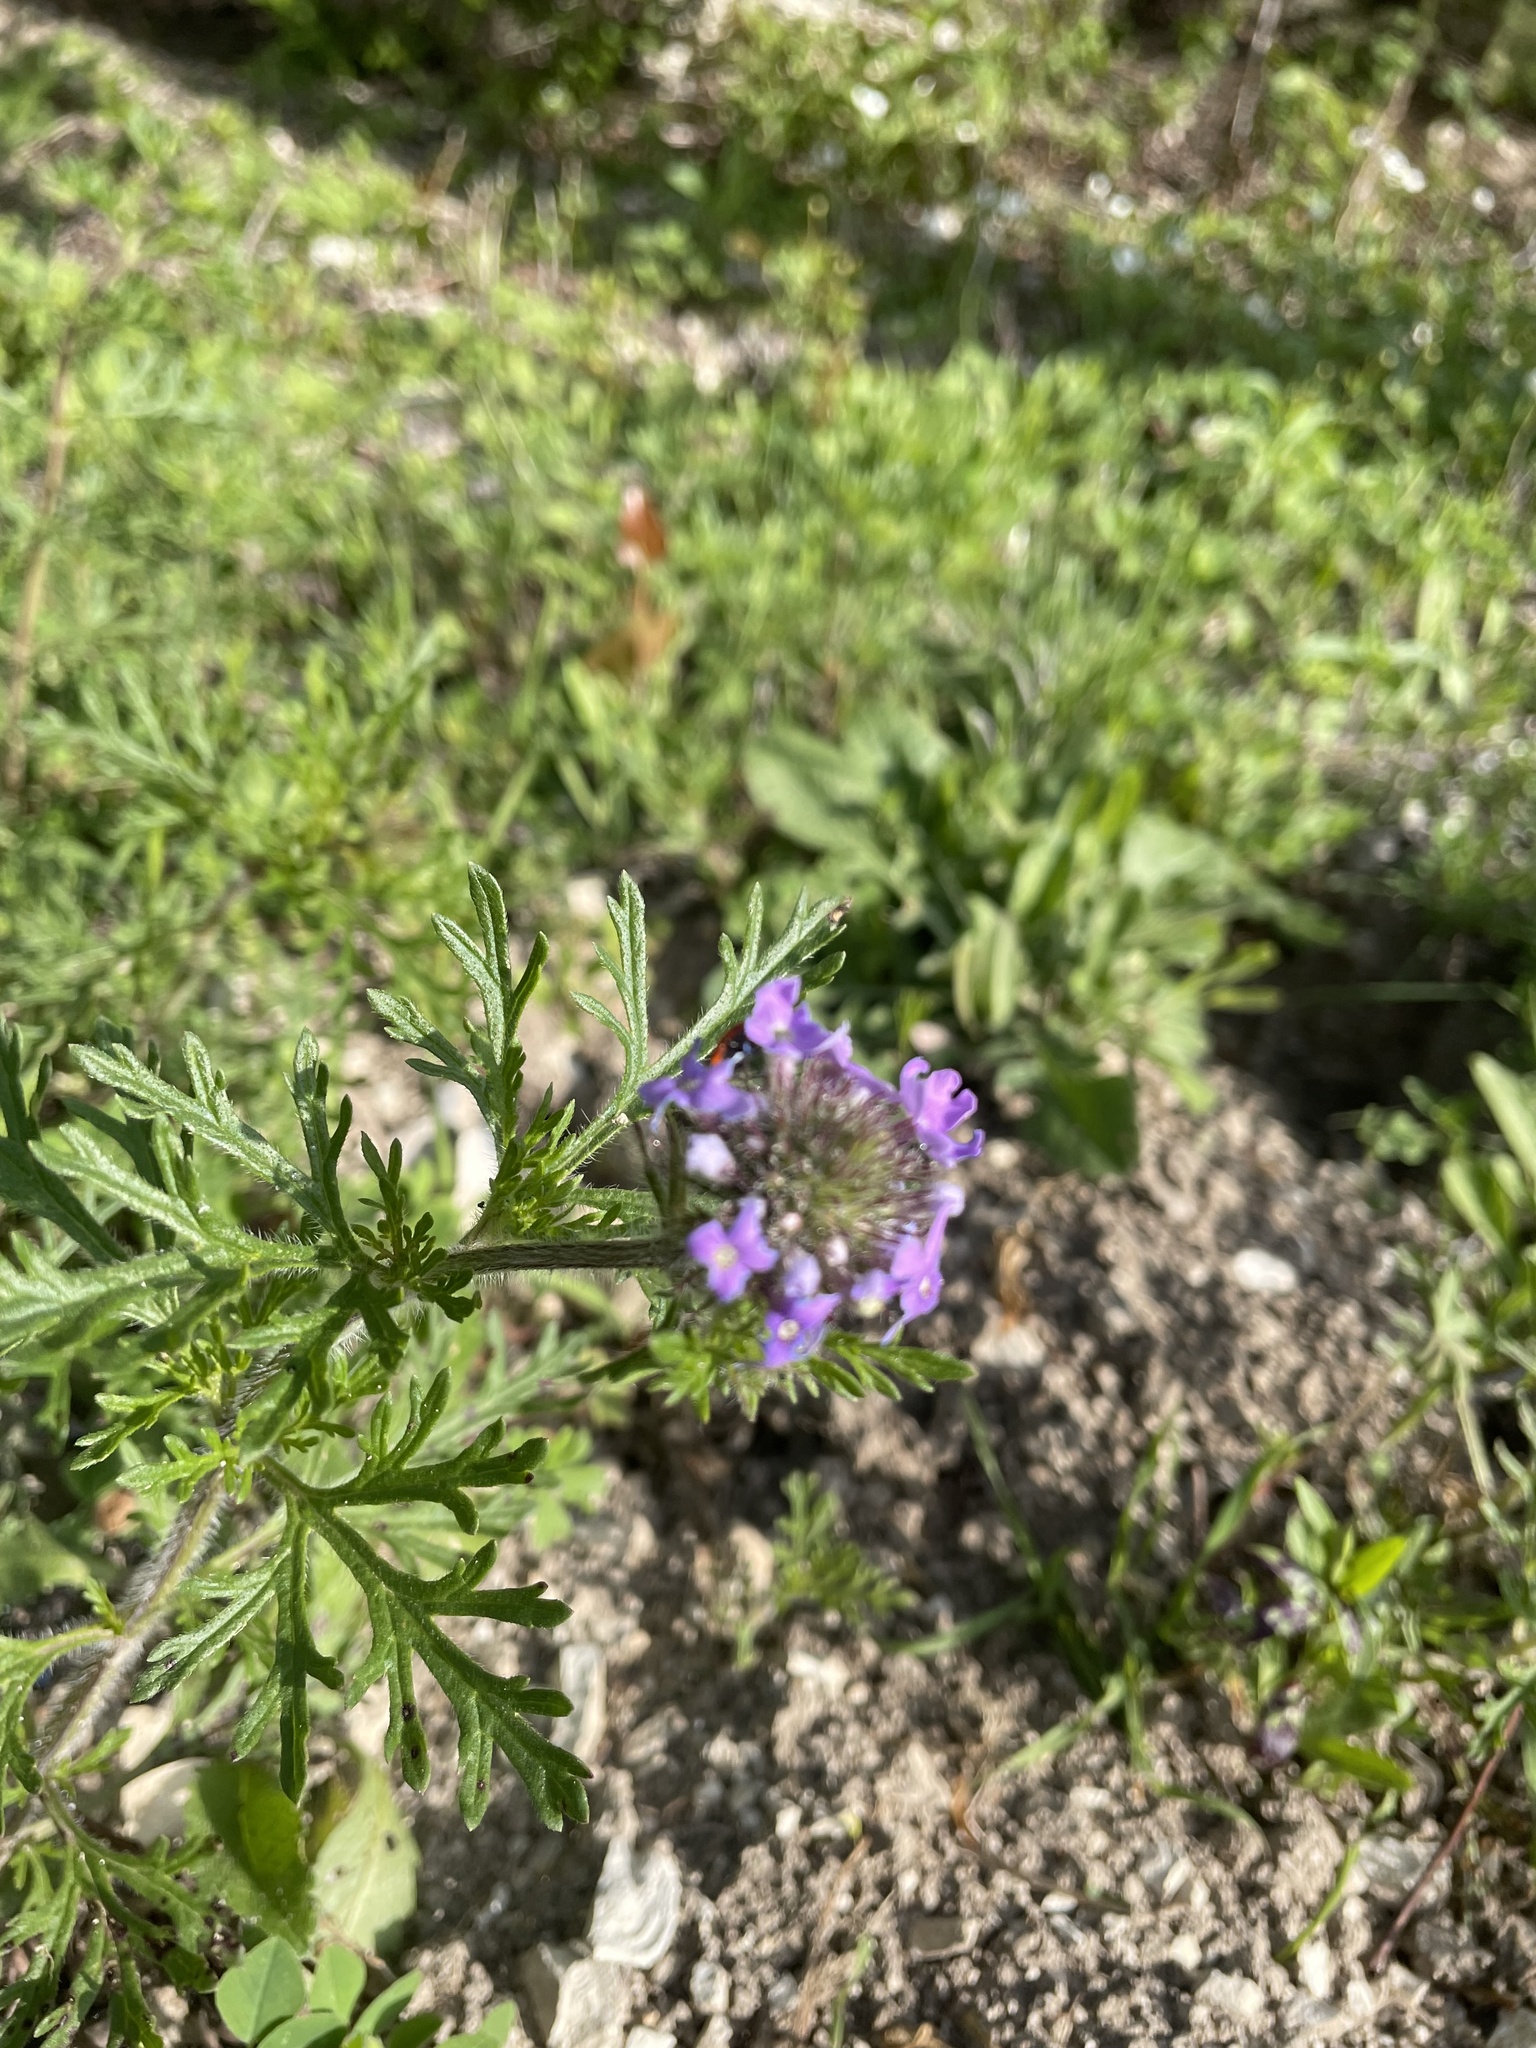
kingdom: Plantae
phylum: Tracheophyta
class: Magnoliopsida
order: Lamiales
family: Verbenaceae
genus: Verbena
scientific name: Verbena bipinnatifida
